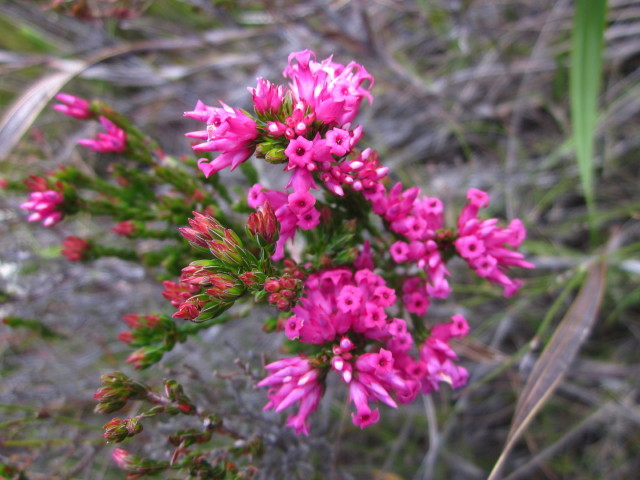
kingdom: Plantae
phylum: Tracheophyta
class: Magnoliopsida
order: Ericales
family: Ericaceae
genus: Erica
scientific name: Erica steinbergiana
